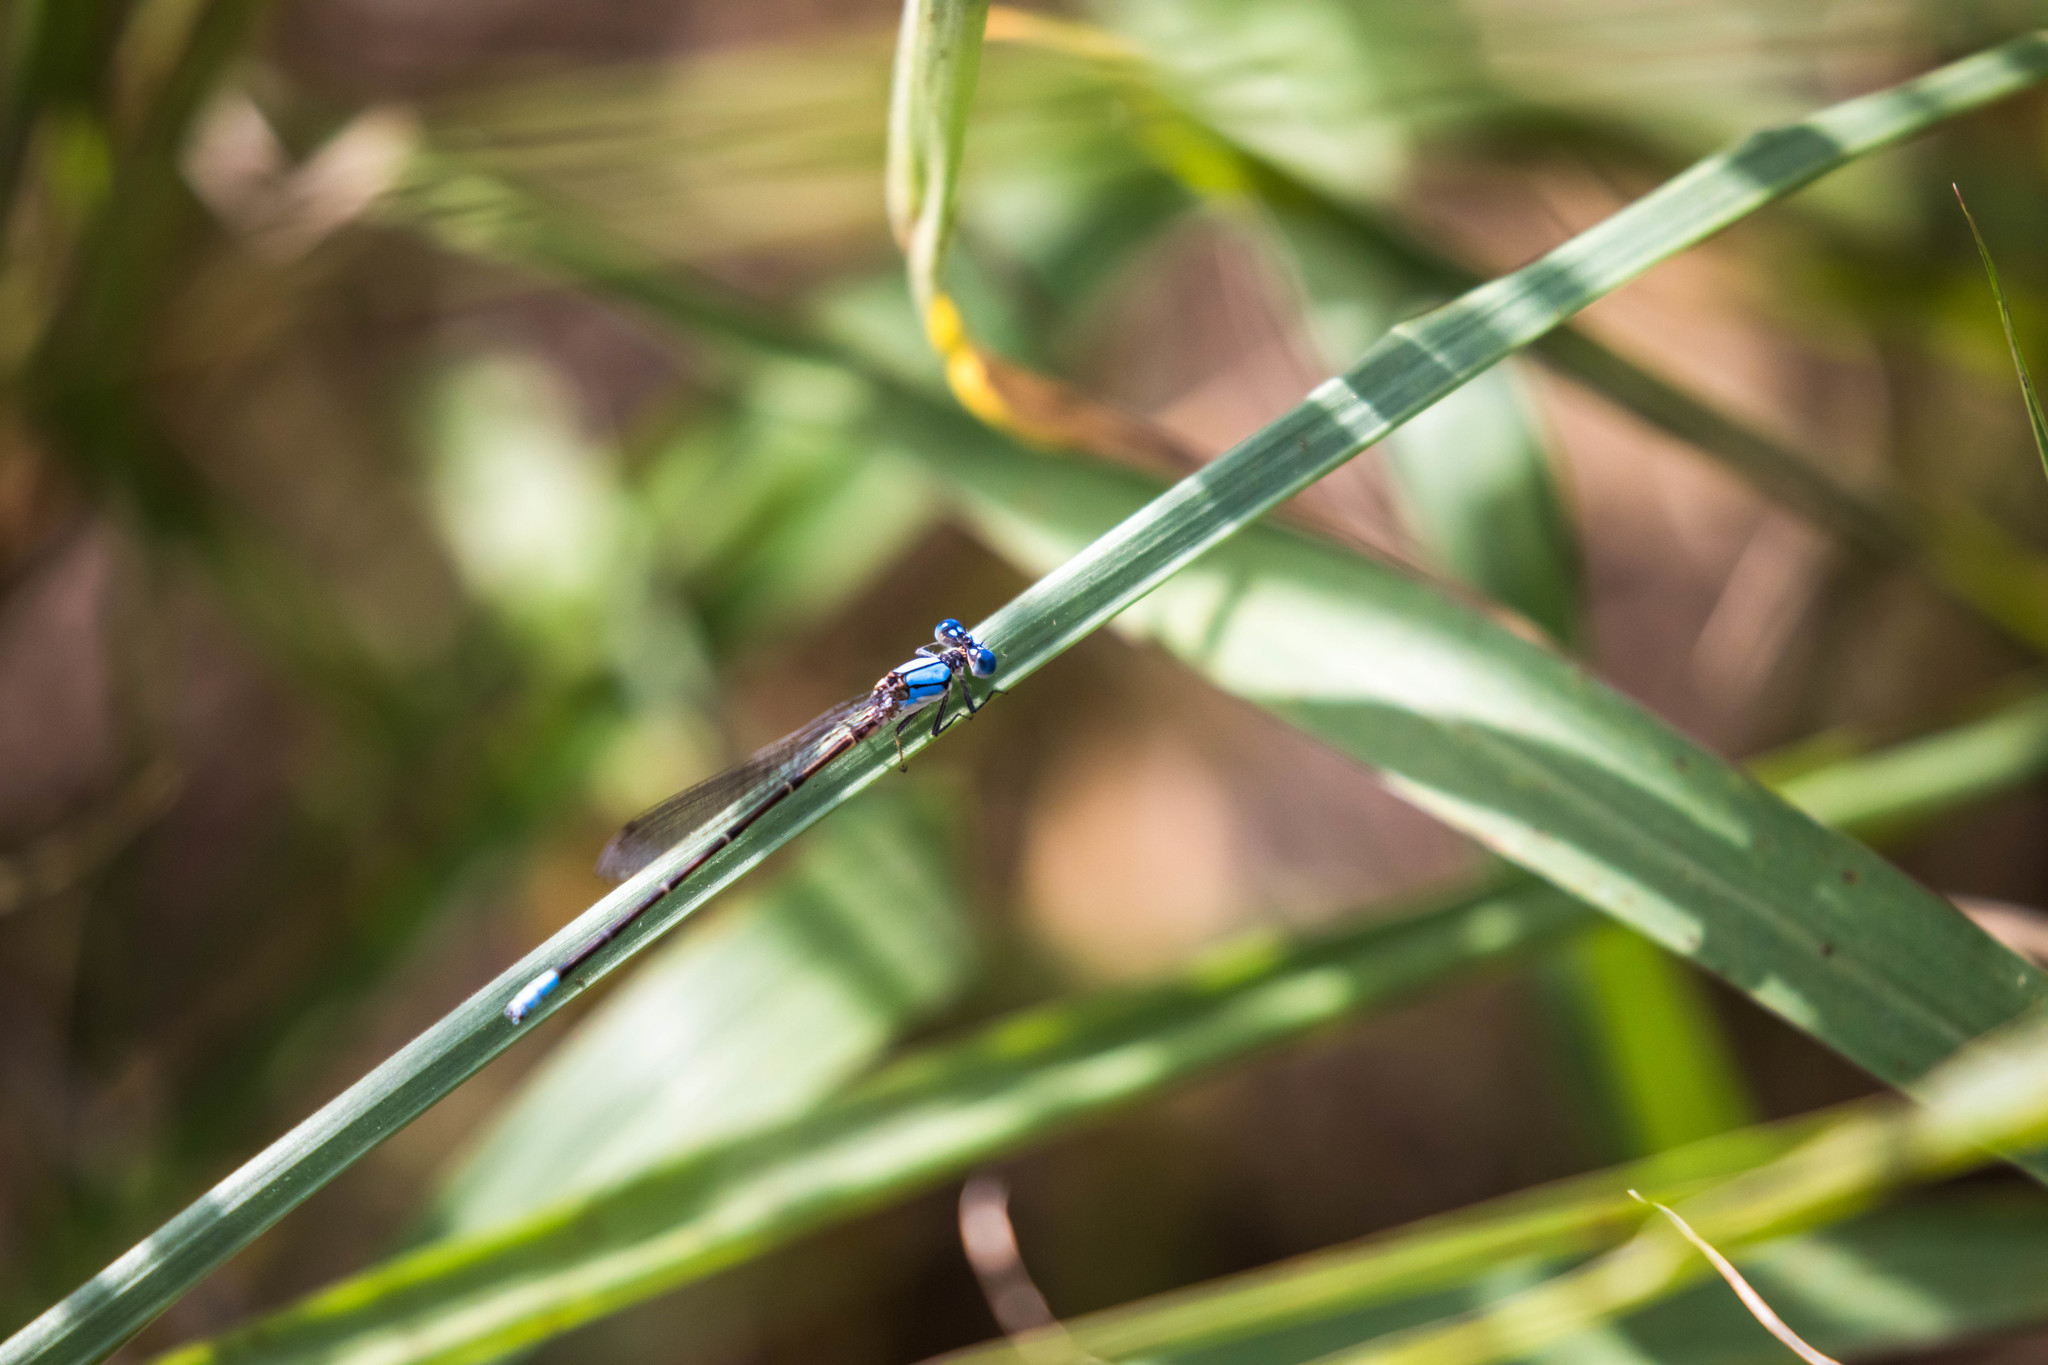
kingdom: Animalia
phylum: Arthropoda
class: Insecta
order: Odonata
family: Coenagrionidae
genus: Argia
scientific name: Argia apicalis
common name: Blue-fronted dancer
